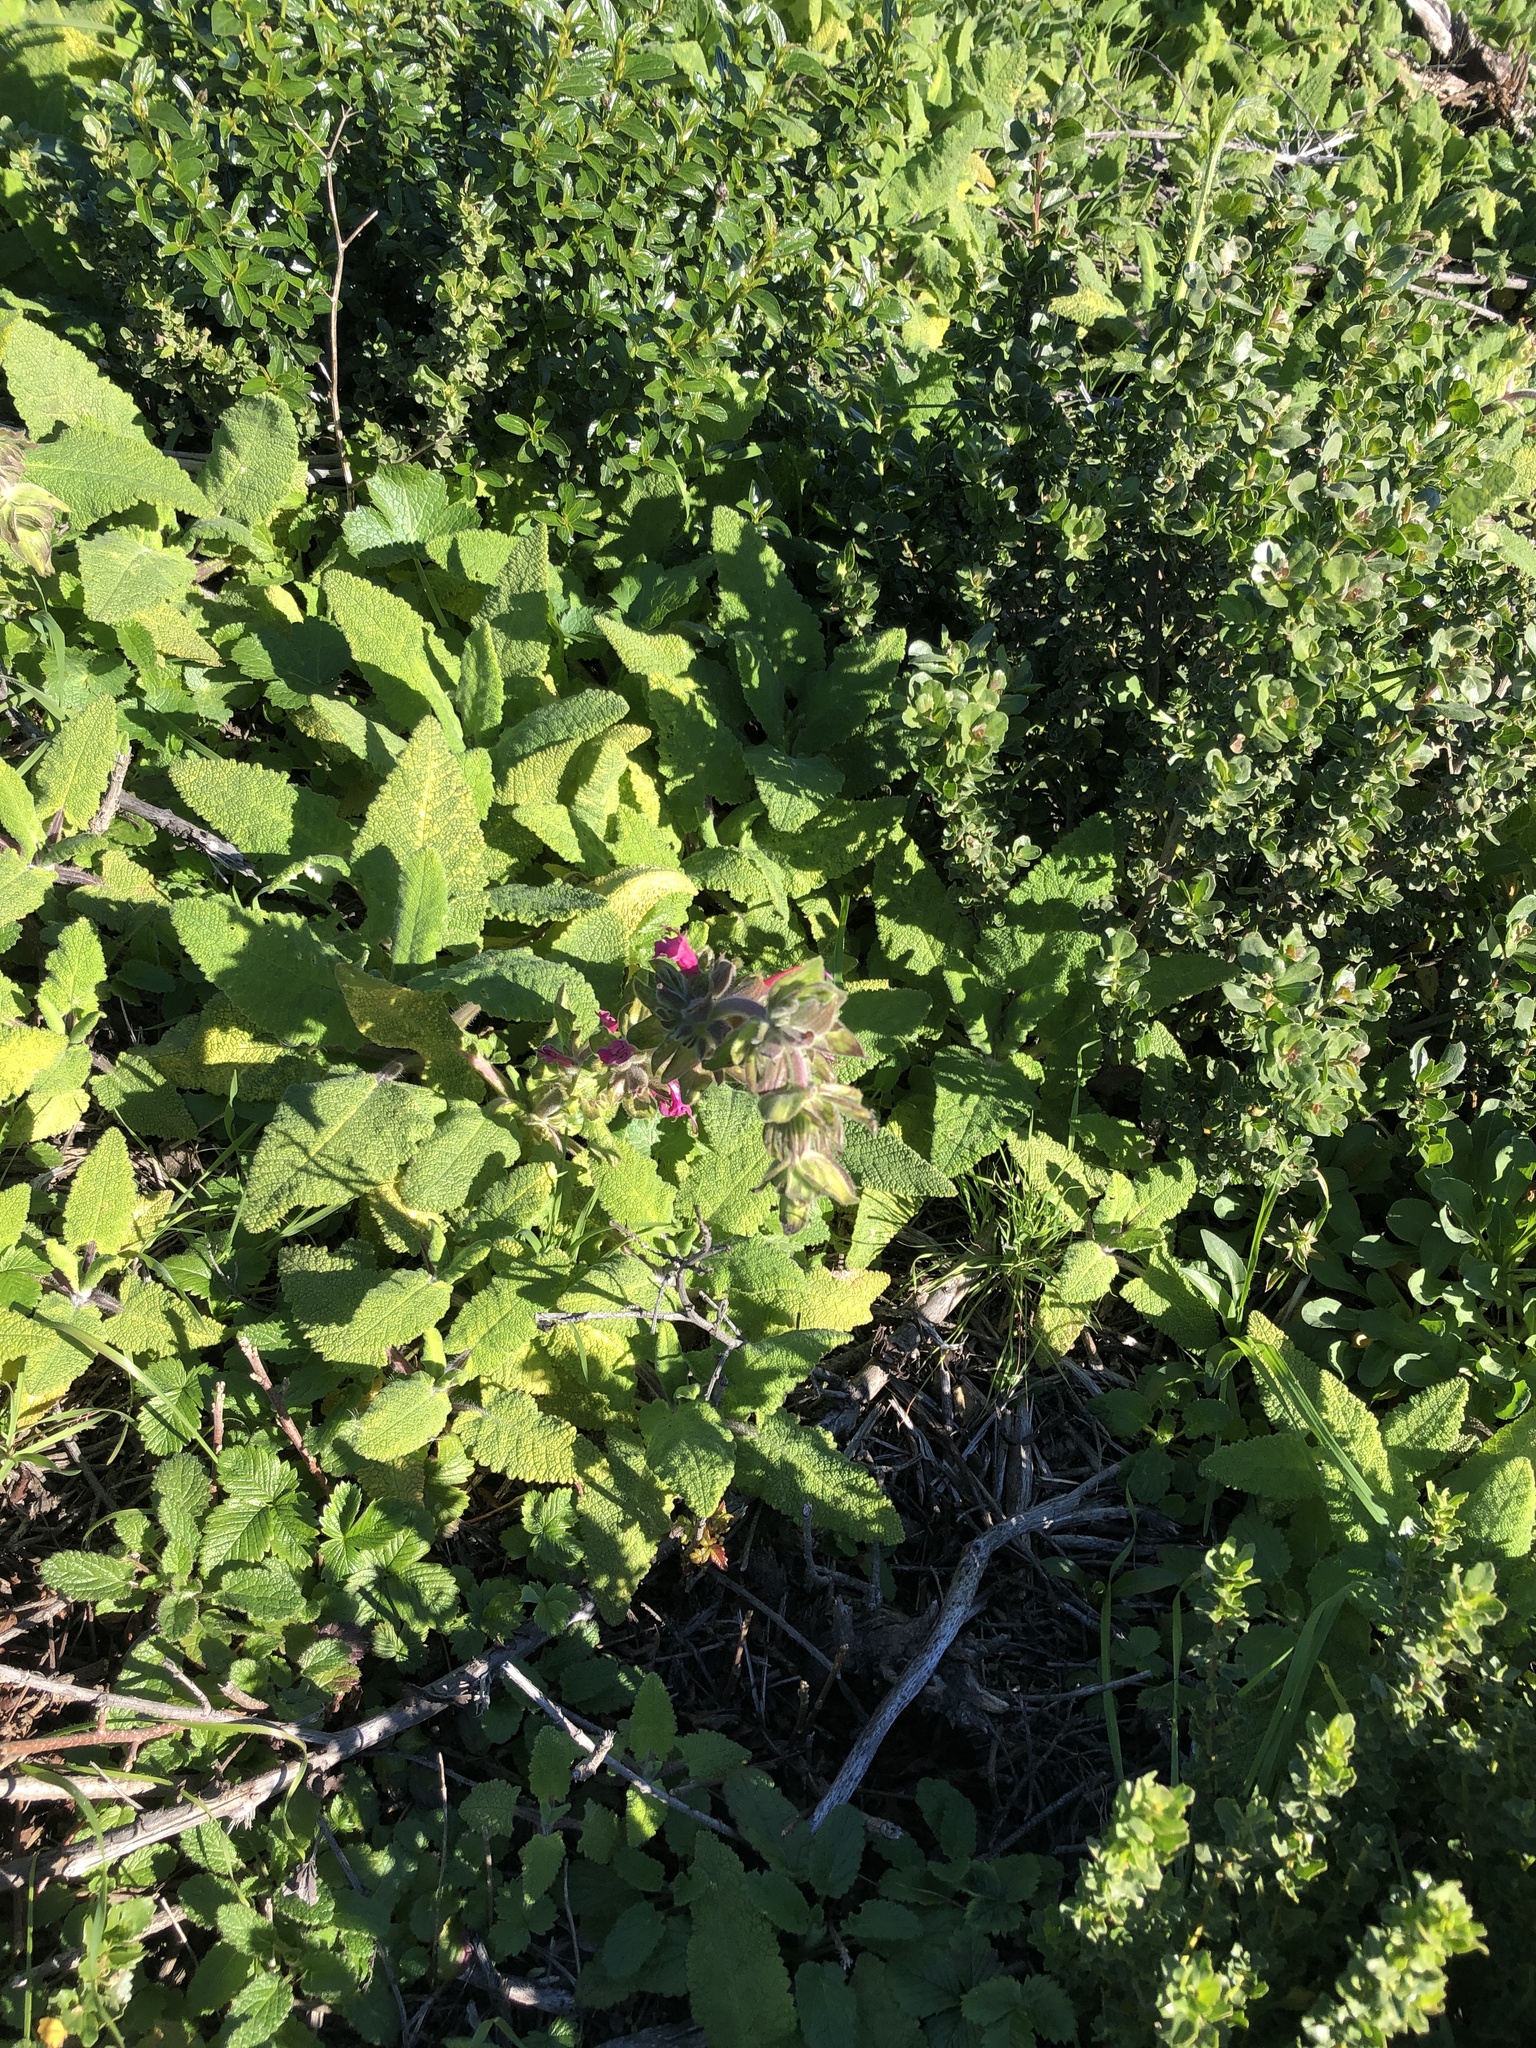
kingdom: Plantae
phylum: Tracheophyta
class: Magnoliopsida
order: Lamiales
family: Lamiaceae
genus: Salvia
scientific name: Salvia spathacea
